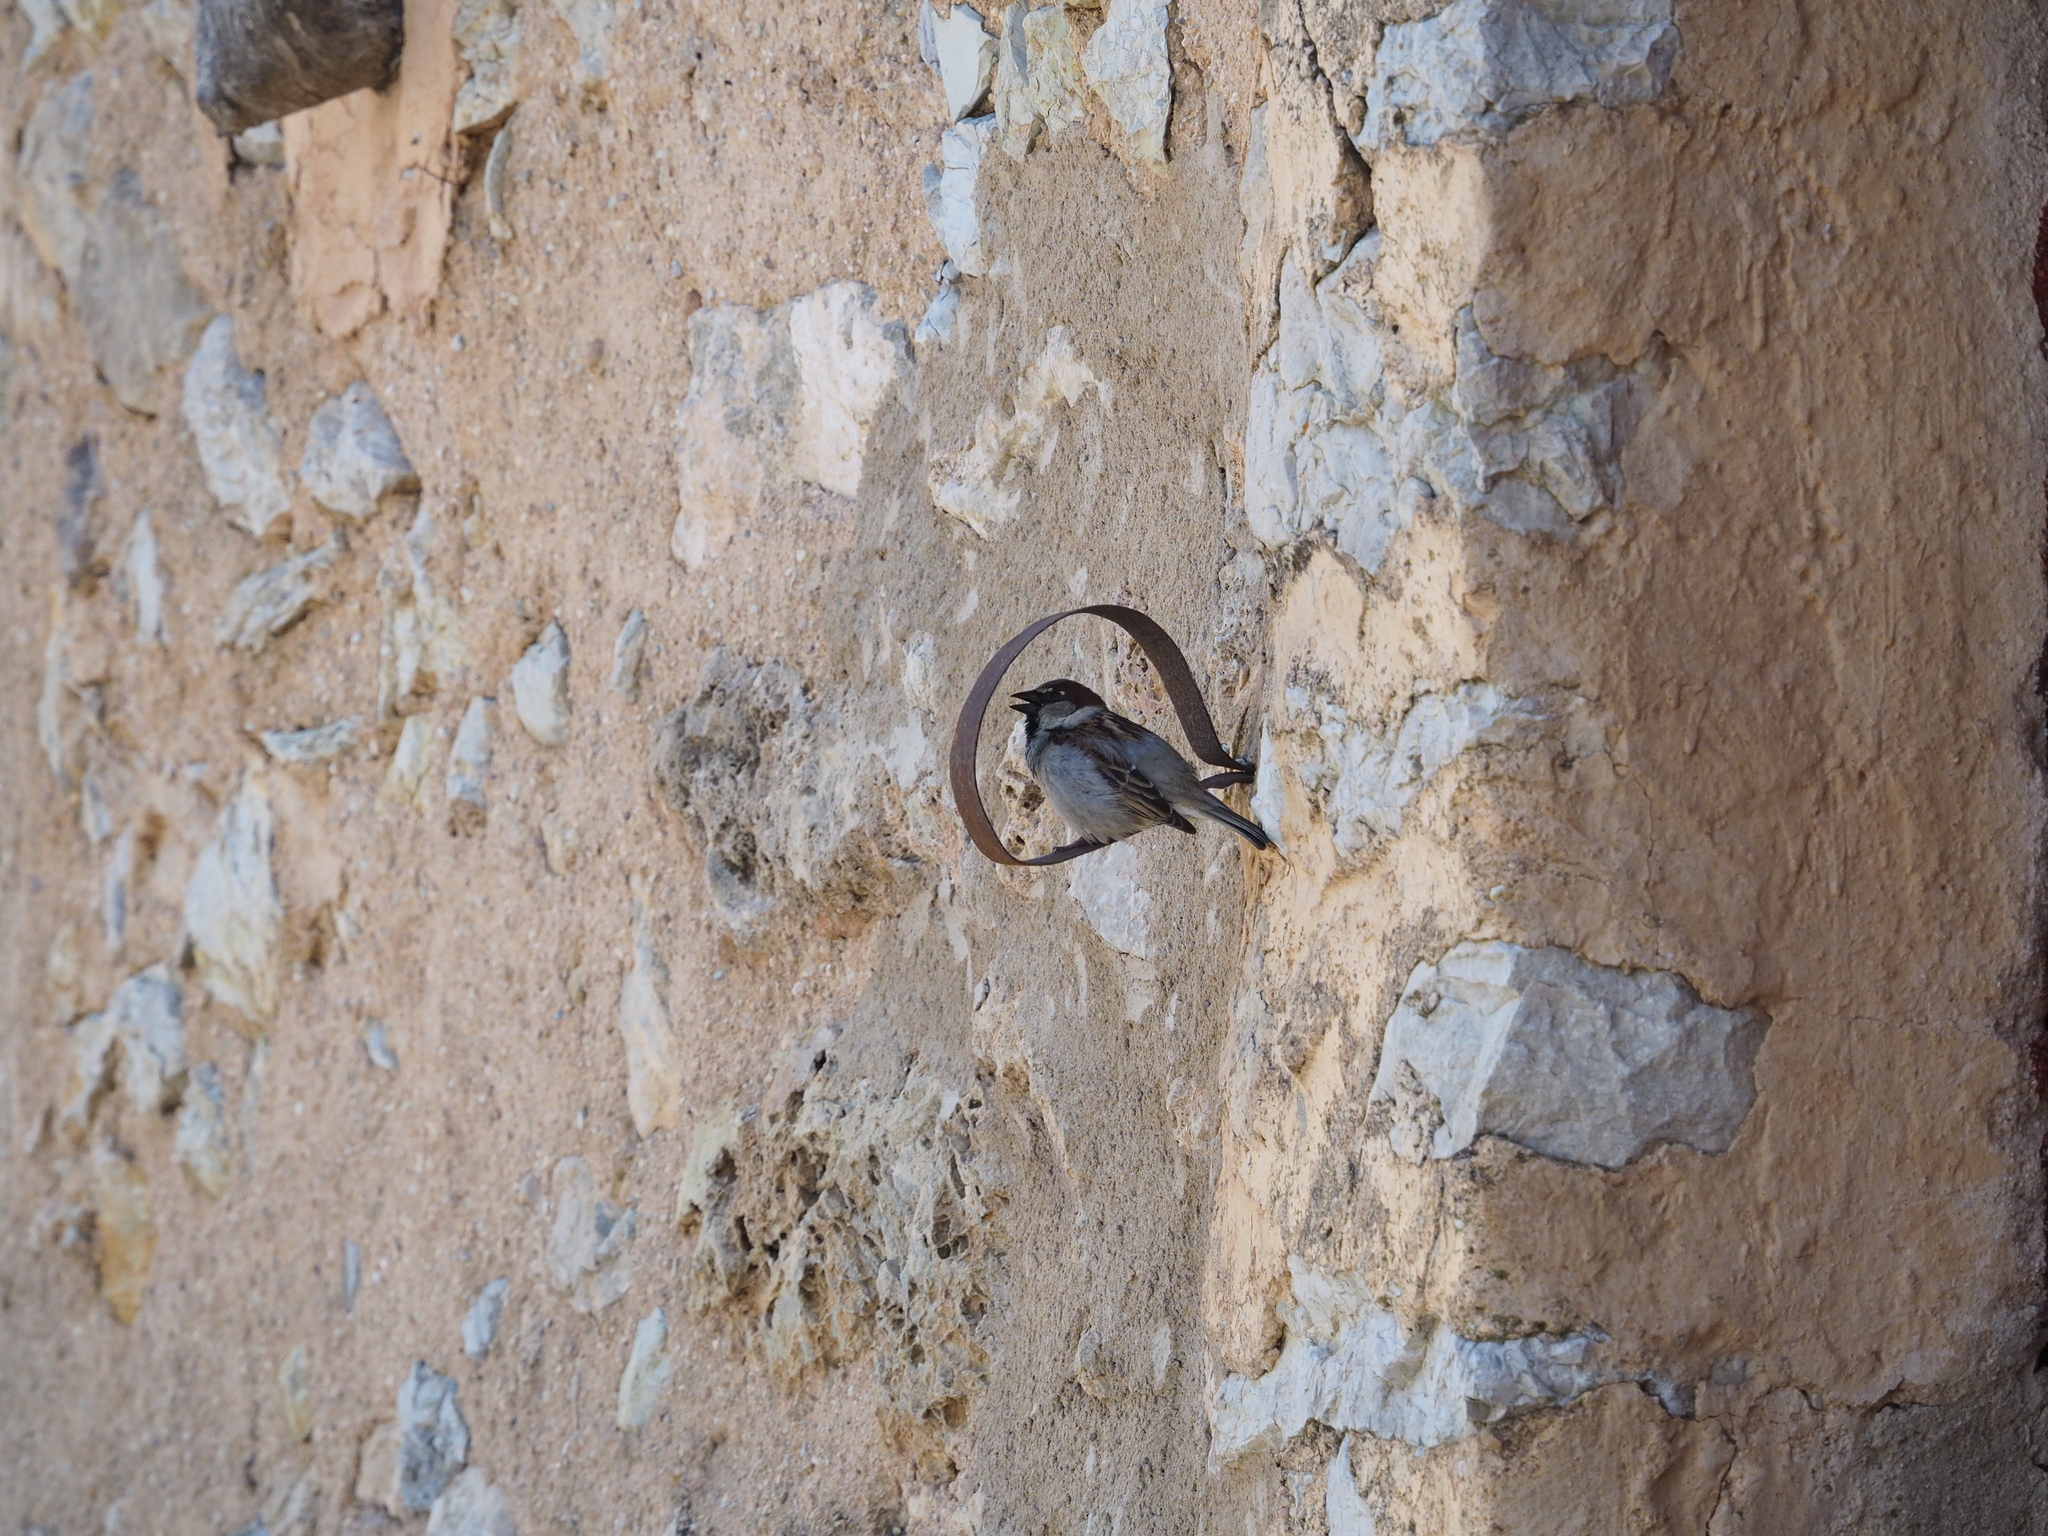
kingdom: Animalia
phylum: Chordata
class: Aves
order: Passeriformes
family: Passeridae
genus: Passer
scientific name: Passer domesticus
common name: House sparrow
